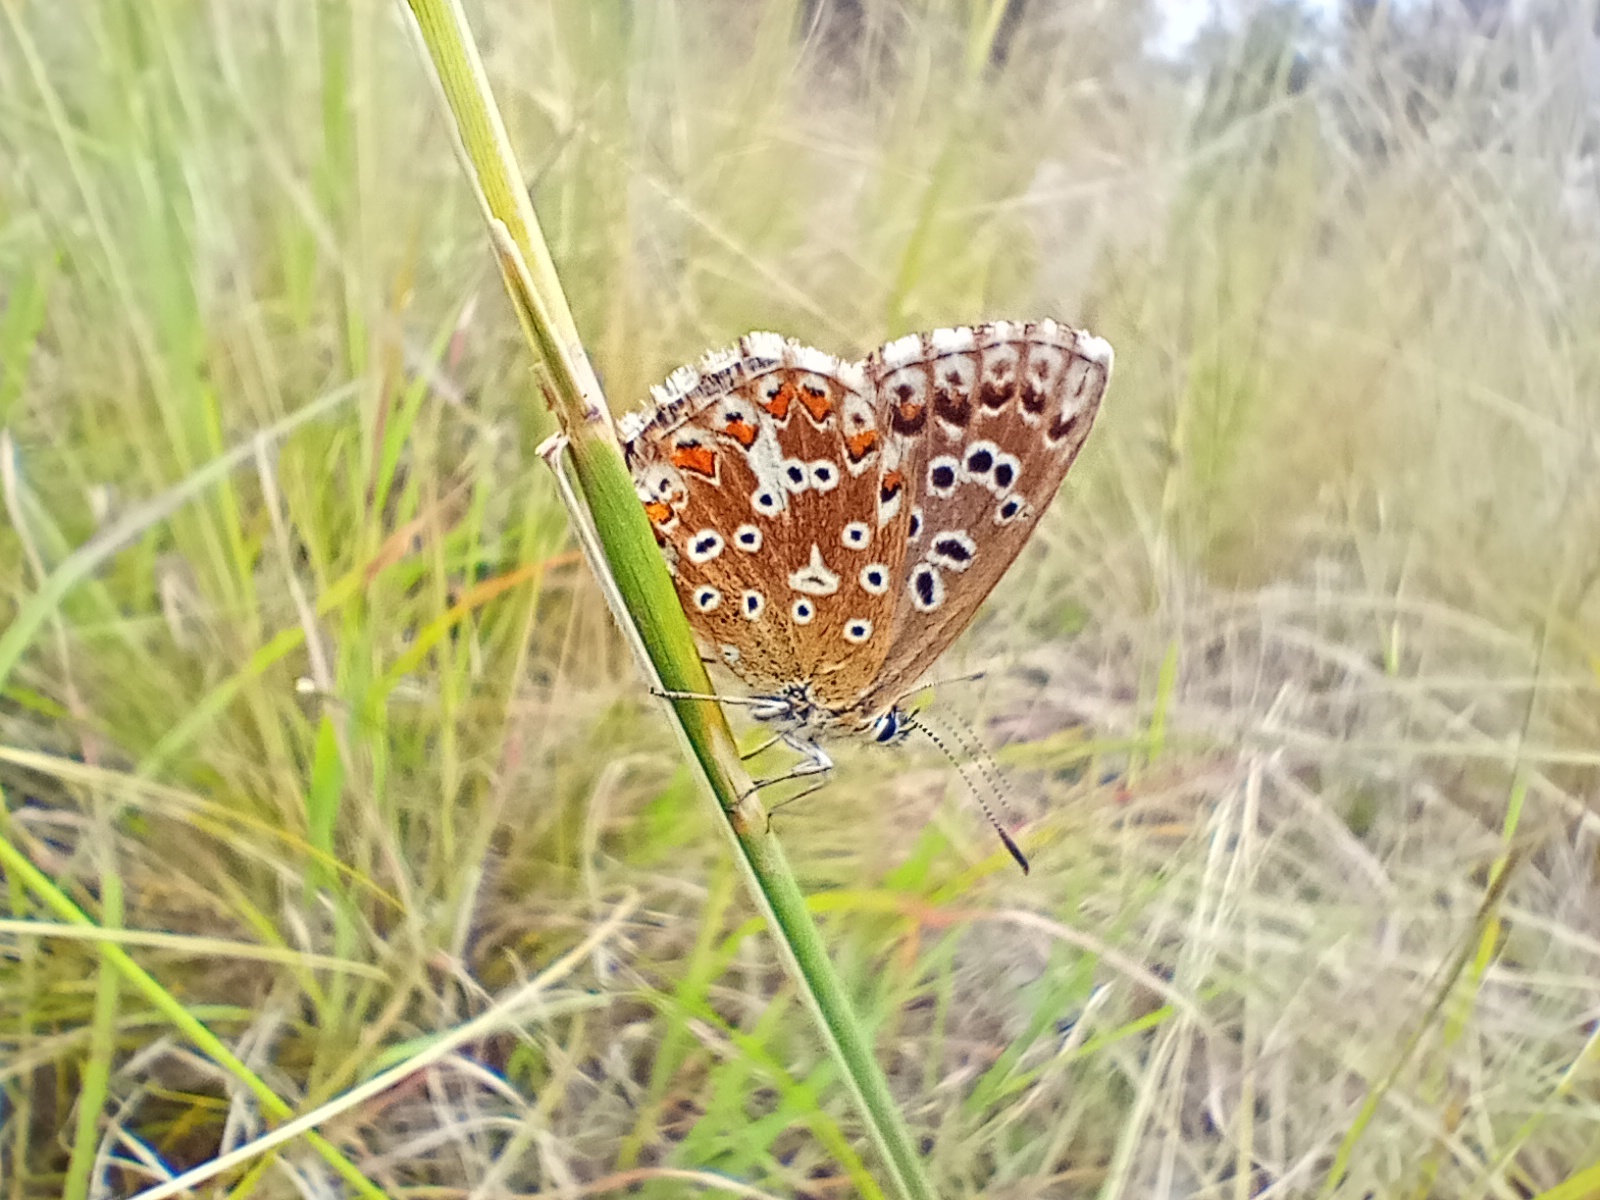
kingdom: Animalia
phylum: Arthropoda
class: Insecta
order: Lepidoptera
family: Lycaenidae
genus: Lysandra
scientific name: Lysandra coridon
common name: Chalkhill blue
